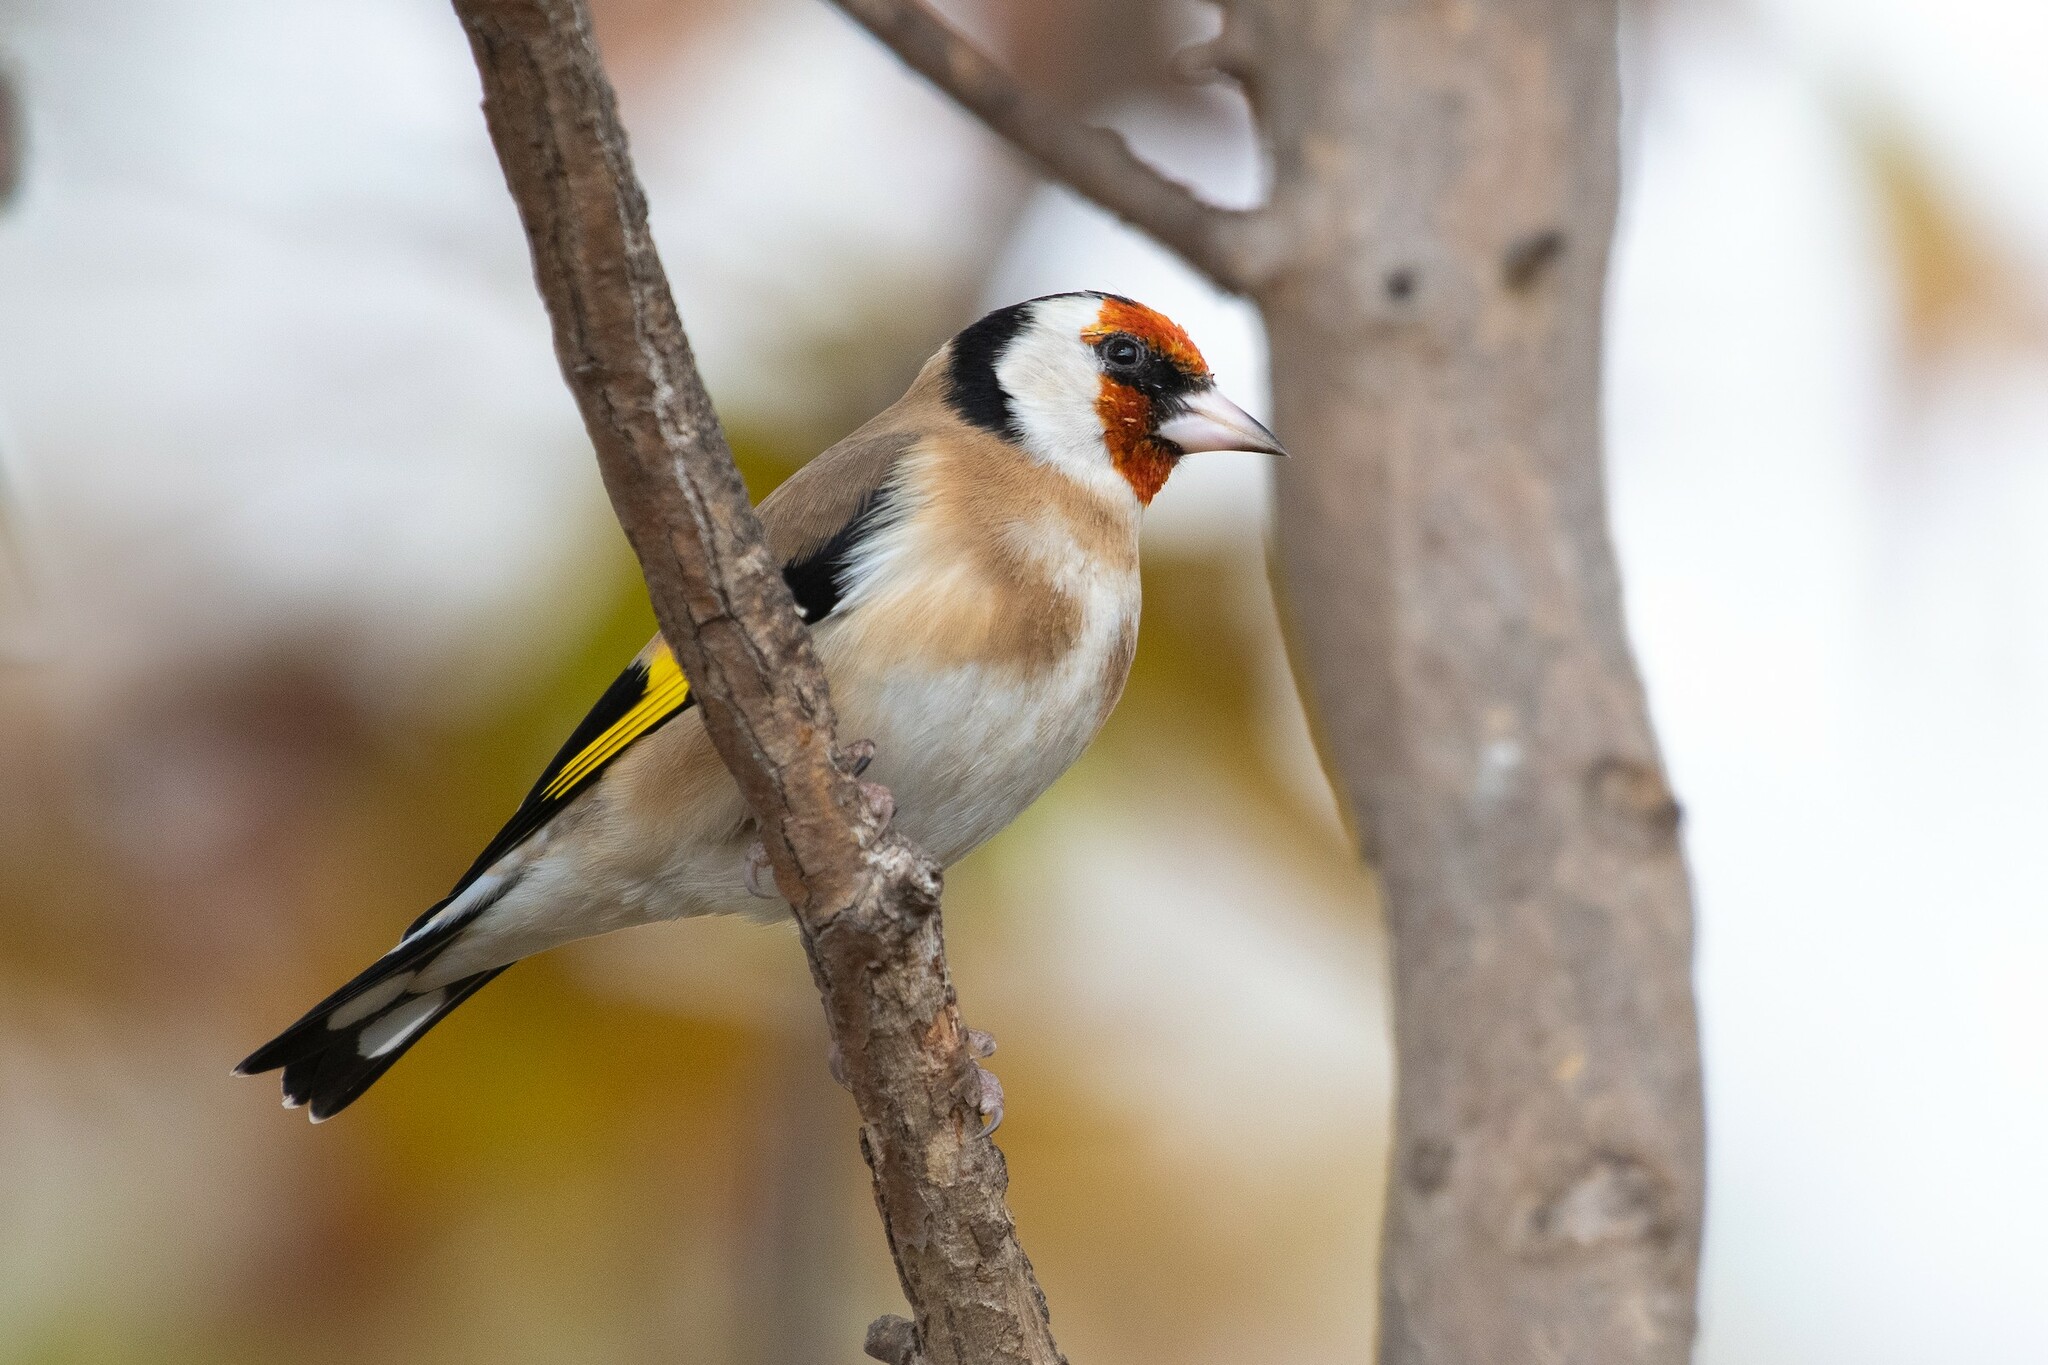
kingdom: Animalia
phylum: Chordata
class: Aves
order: Passeriformes
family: Fringillidae
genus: Carduelis
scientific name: Carduelis carduelis
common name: European goldfinch
